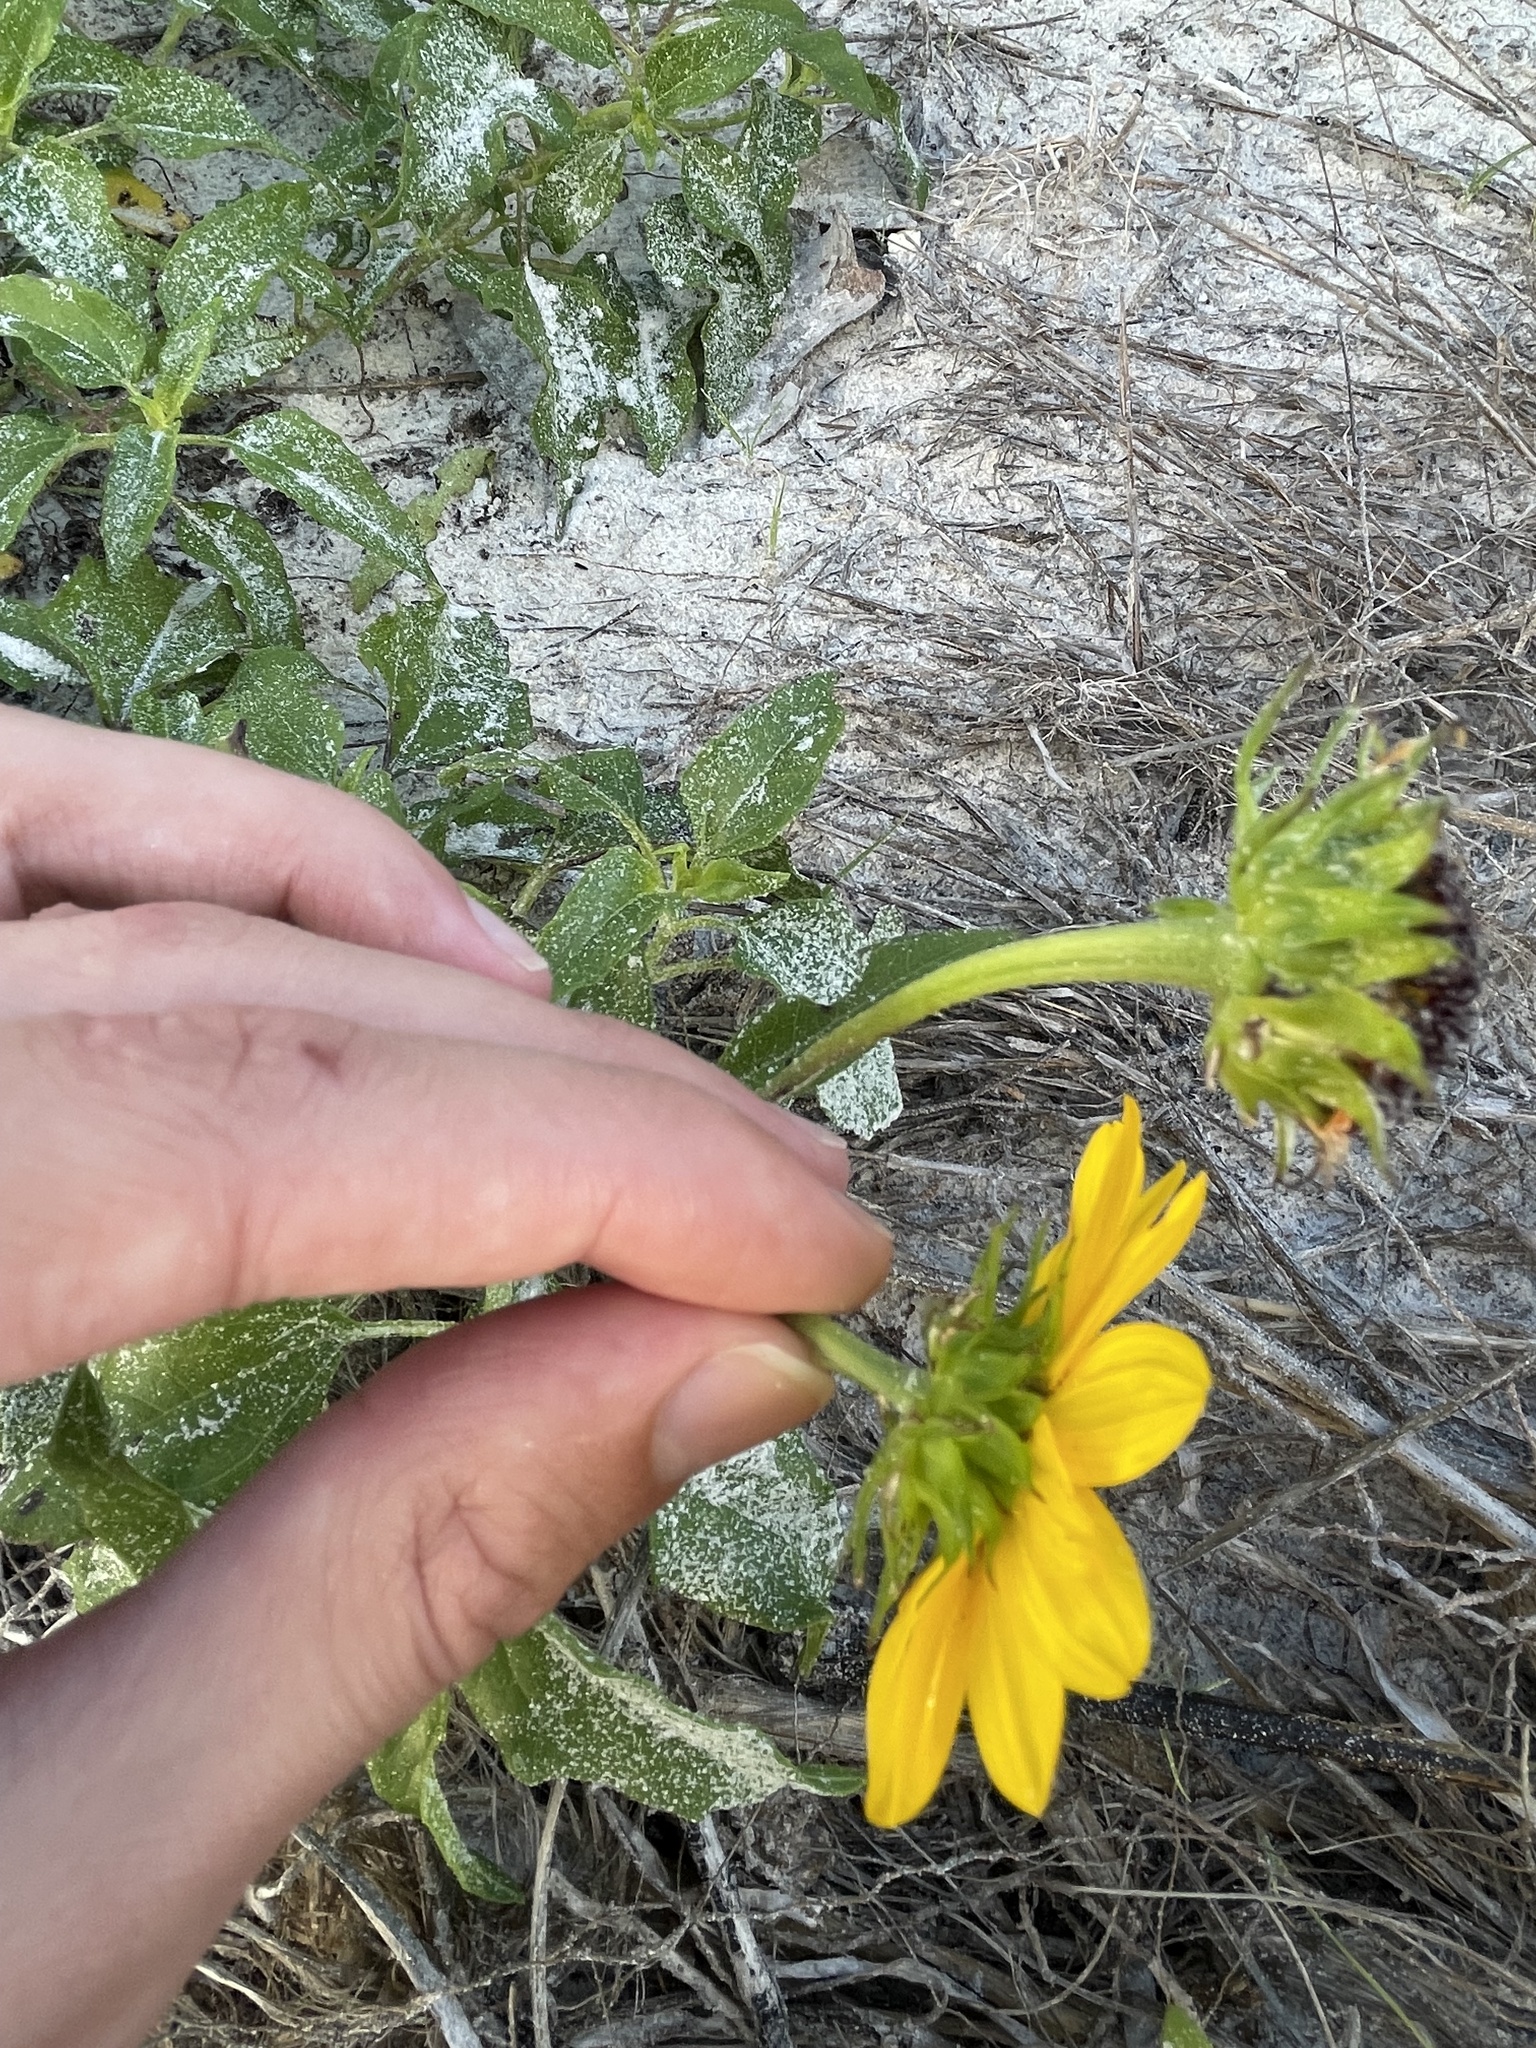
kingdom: Plantae
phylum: Tracheophyta
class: Magnoliopsida
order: Asterales
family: Asteraceae
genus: Helianthus
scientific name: Helianthus debilis
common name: Weak sunflower
